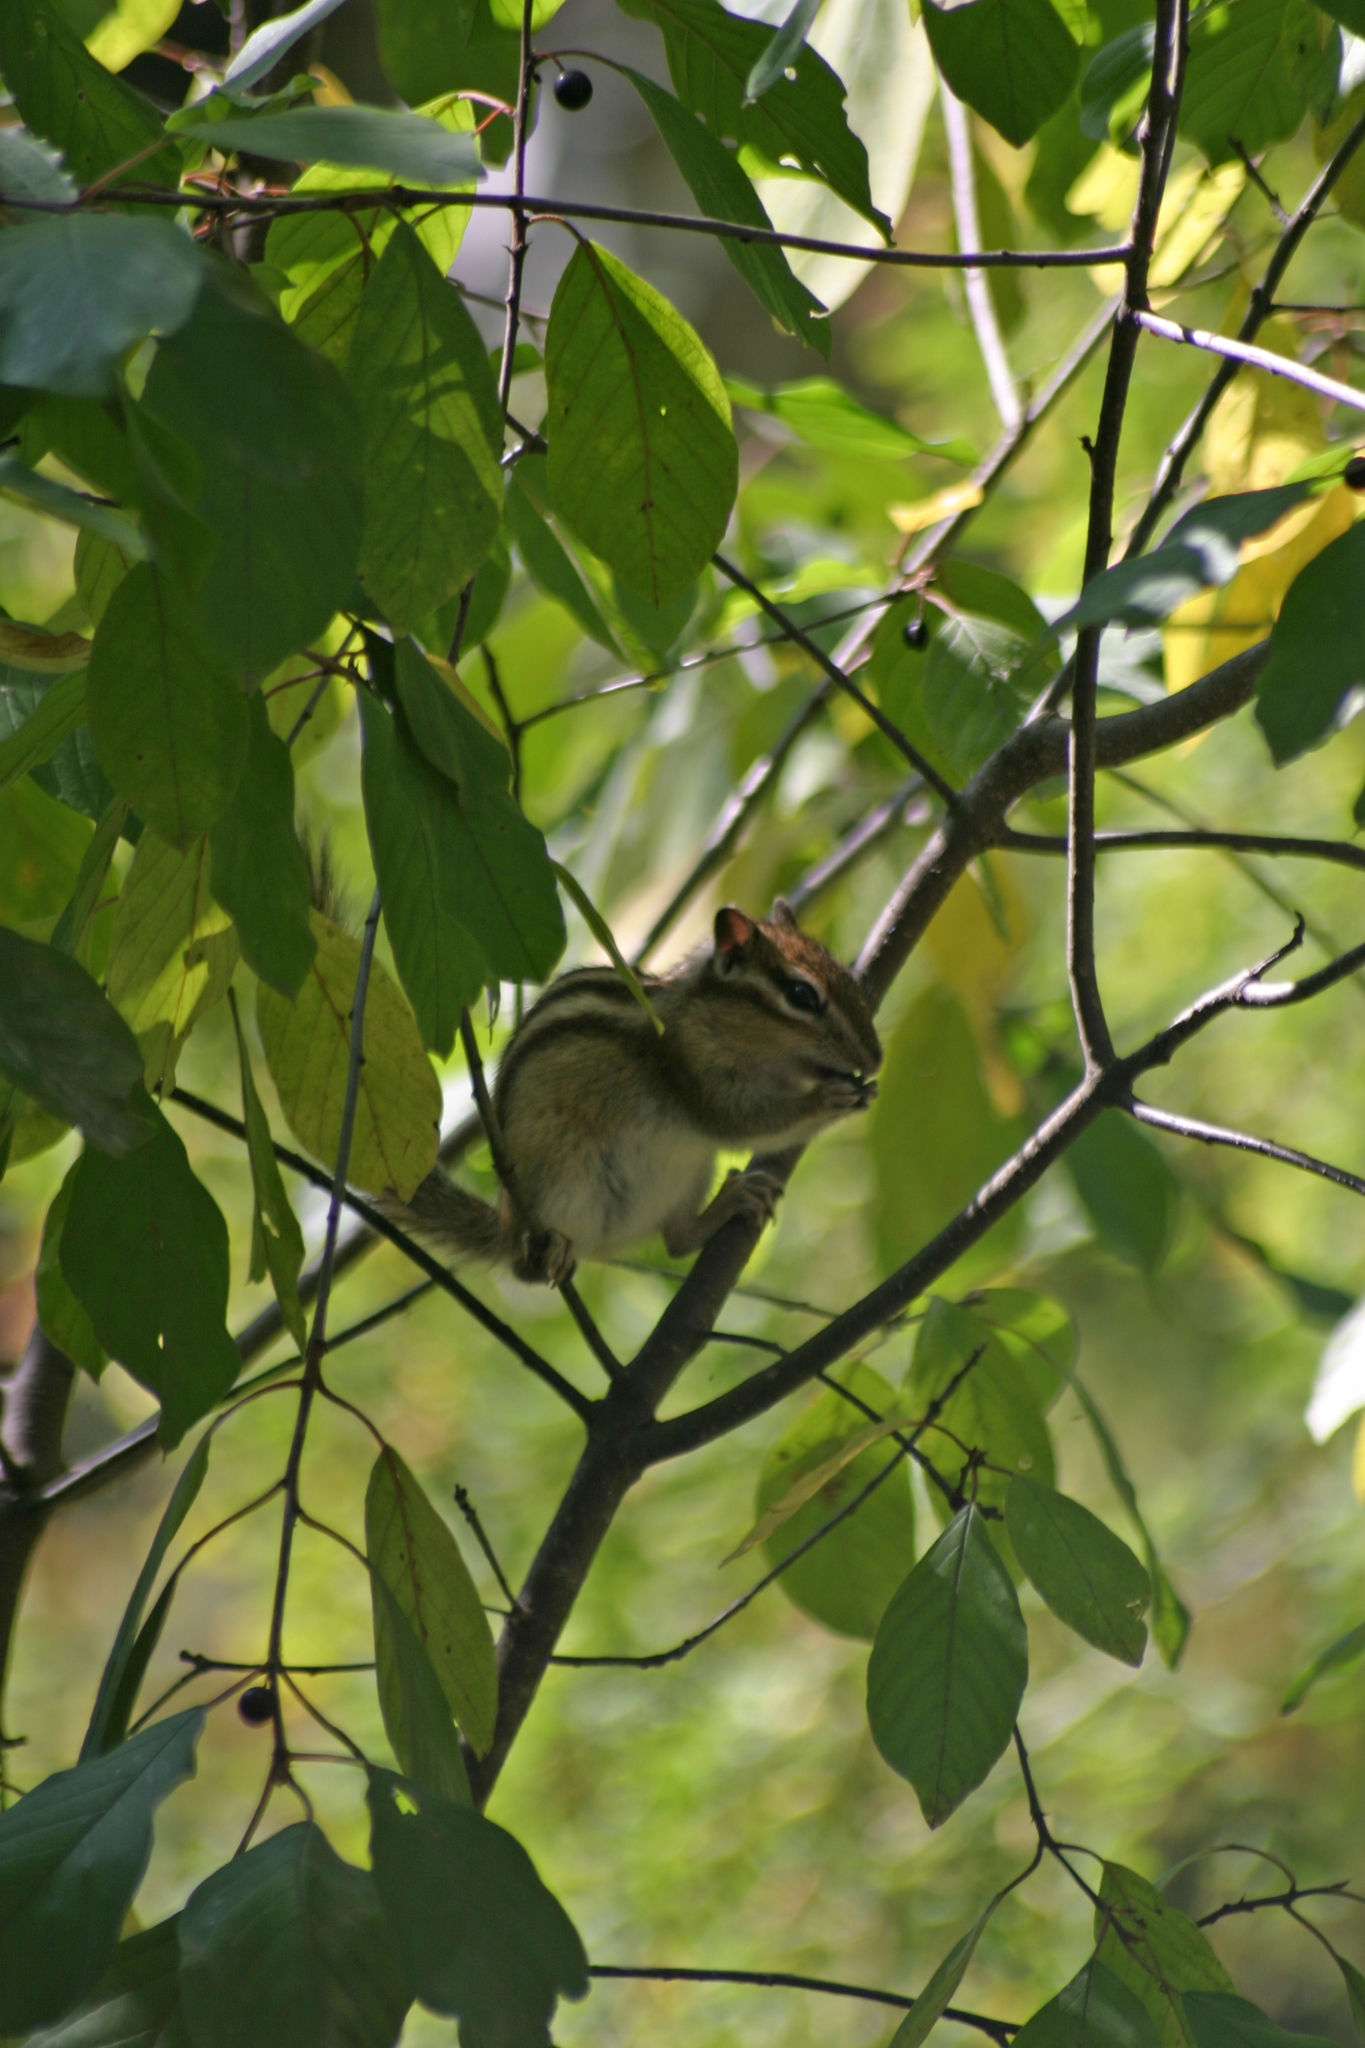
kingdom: Animalia
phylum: Chordata
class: Mammalia
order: Rodentia
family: Sciuridae
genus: Tamias
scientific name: Tamias sibiricus
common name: Siberian chipmunk
